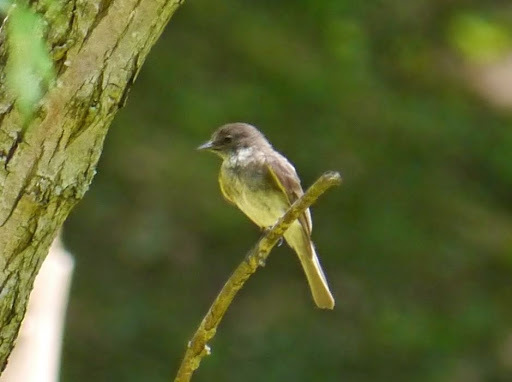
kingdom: Animalia
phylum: Chordata
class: Aves
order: Passeriformes
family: Tyrannidae
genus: Sayornis
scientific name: Sayornis phoebe
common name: Eastern phoebe
